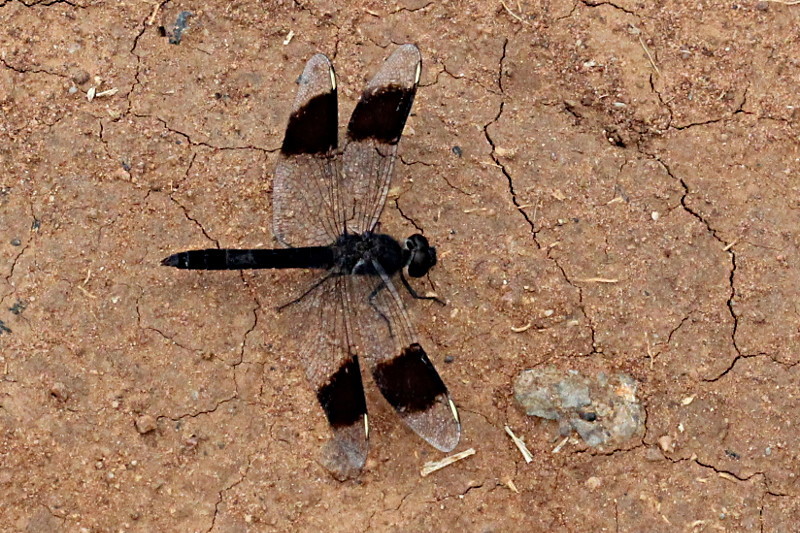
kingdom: Animalia
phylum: Arthropoda
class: Insecta
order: Odonata
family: Libellulidae
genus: Brachythemis
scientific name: Brachythemis leucosticta
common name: Banded groundling
